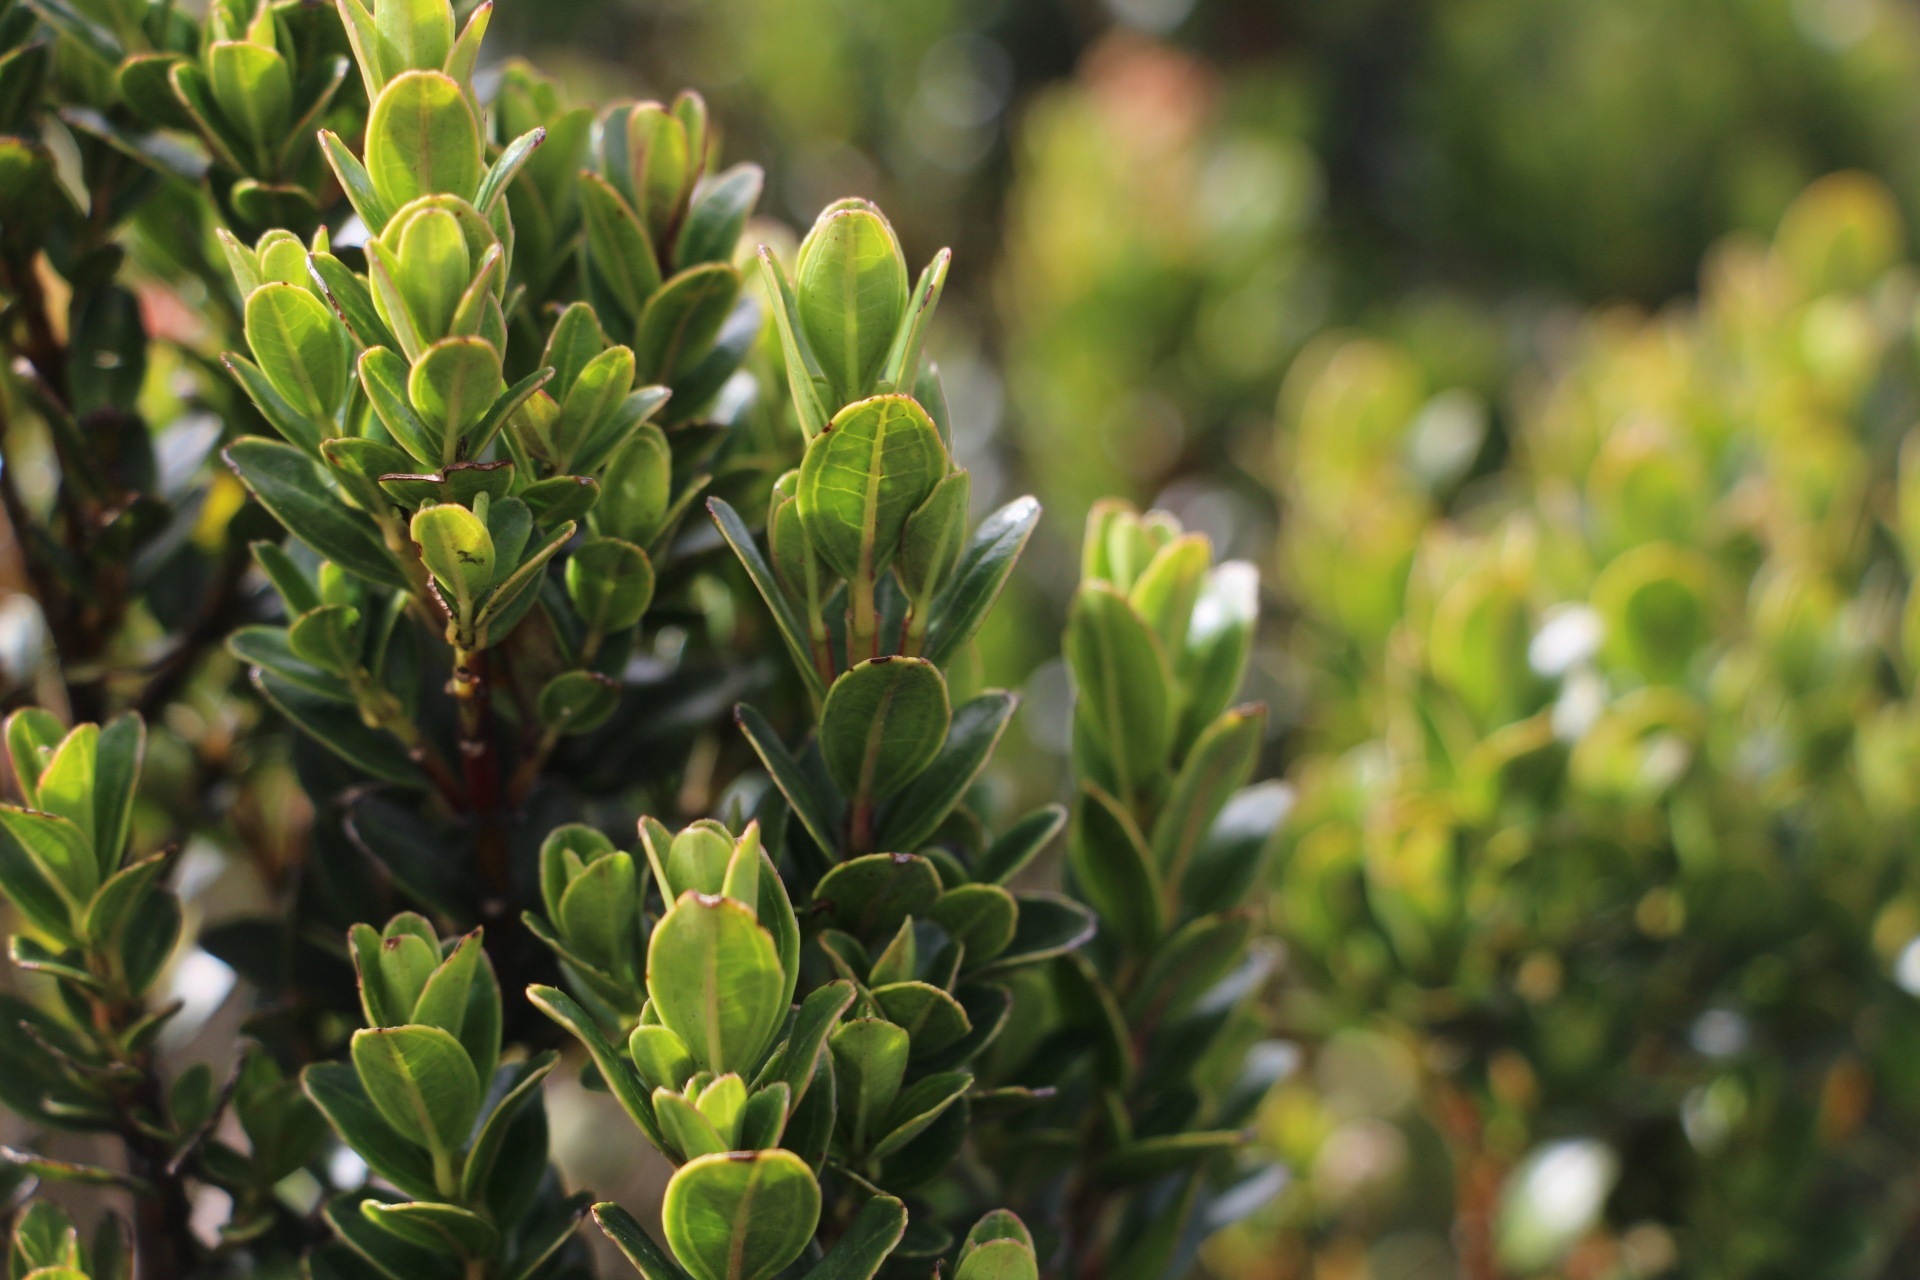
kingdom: Plantae
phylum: Tracheophyta
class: Magnoliopsida
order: Myrtales
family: Melastomataceae
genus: Miconia
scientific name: Miconia ligustrina
